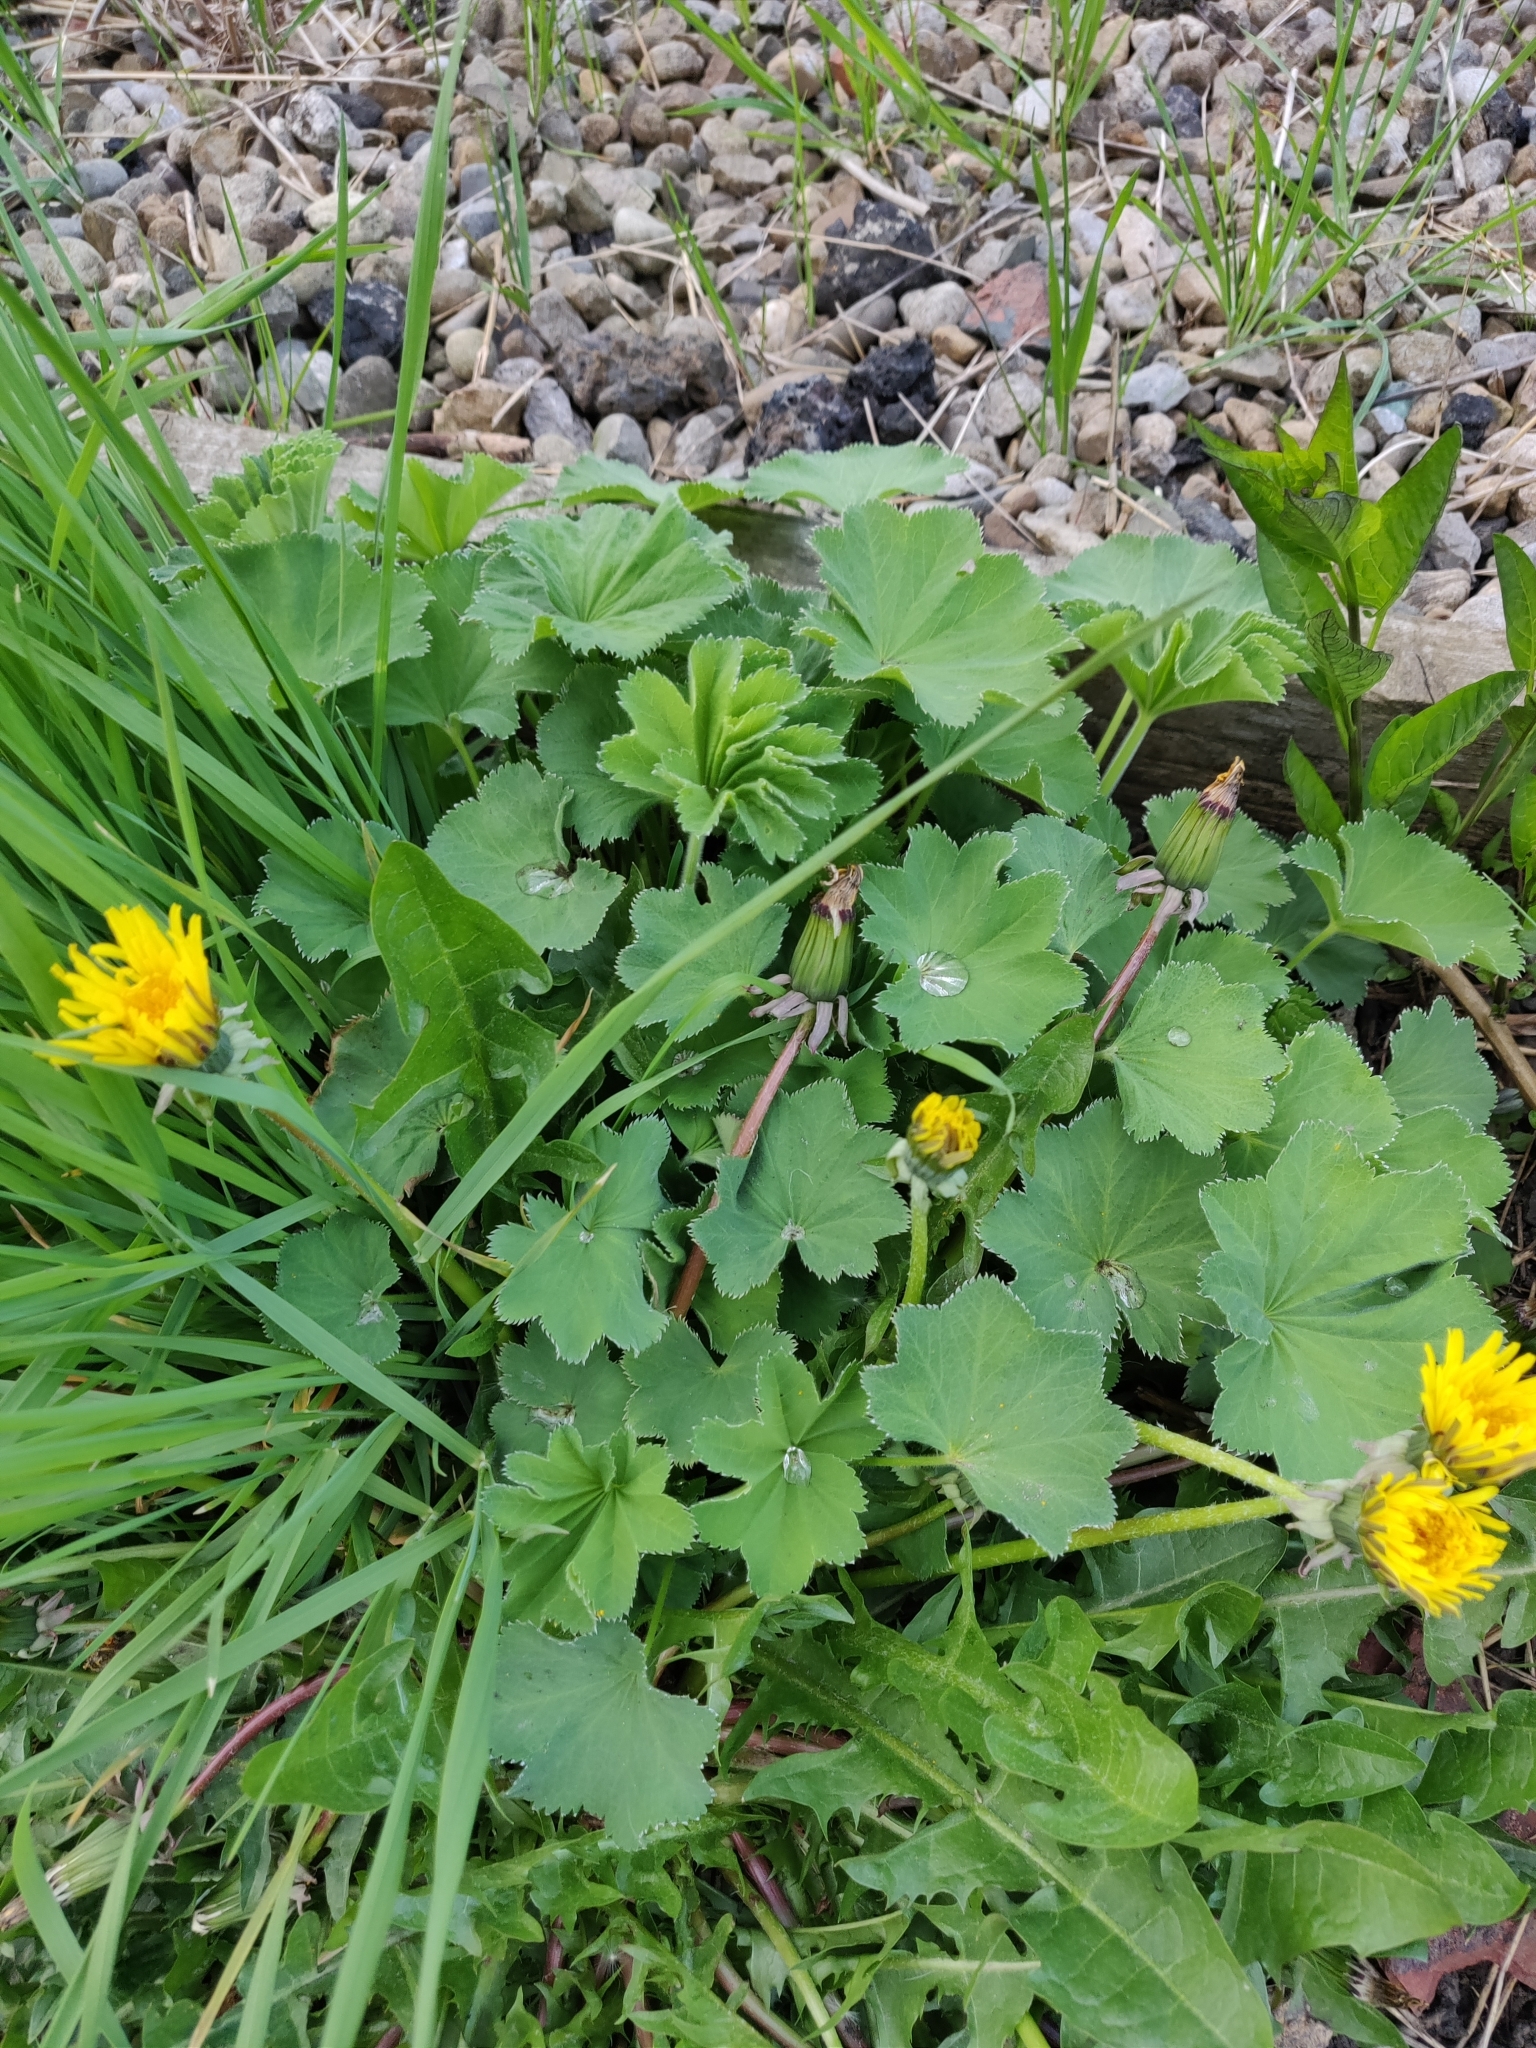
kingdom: Plantae
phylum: Tracheophyta
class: Magnoliopsida
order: Rosales
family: Rosaceae
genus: Alchemilla
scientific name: Alchemilla mollis
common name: Lady's-mantle
